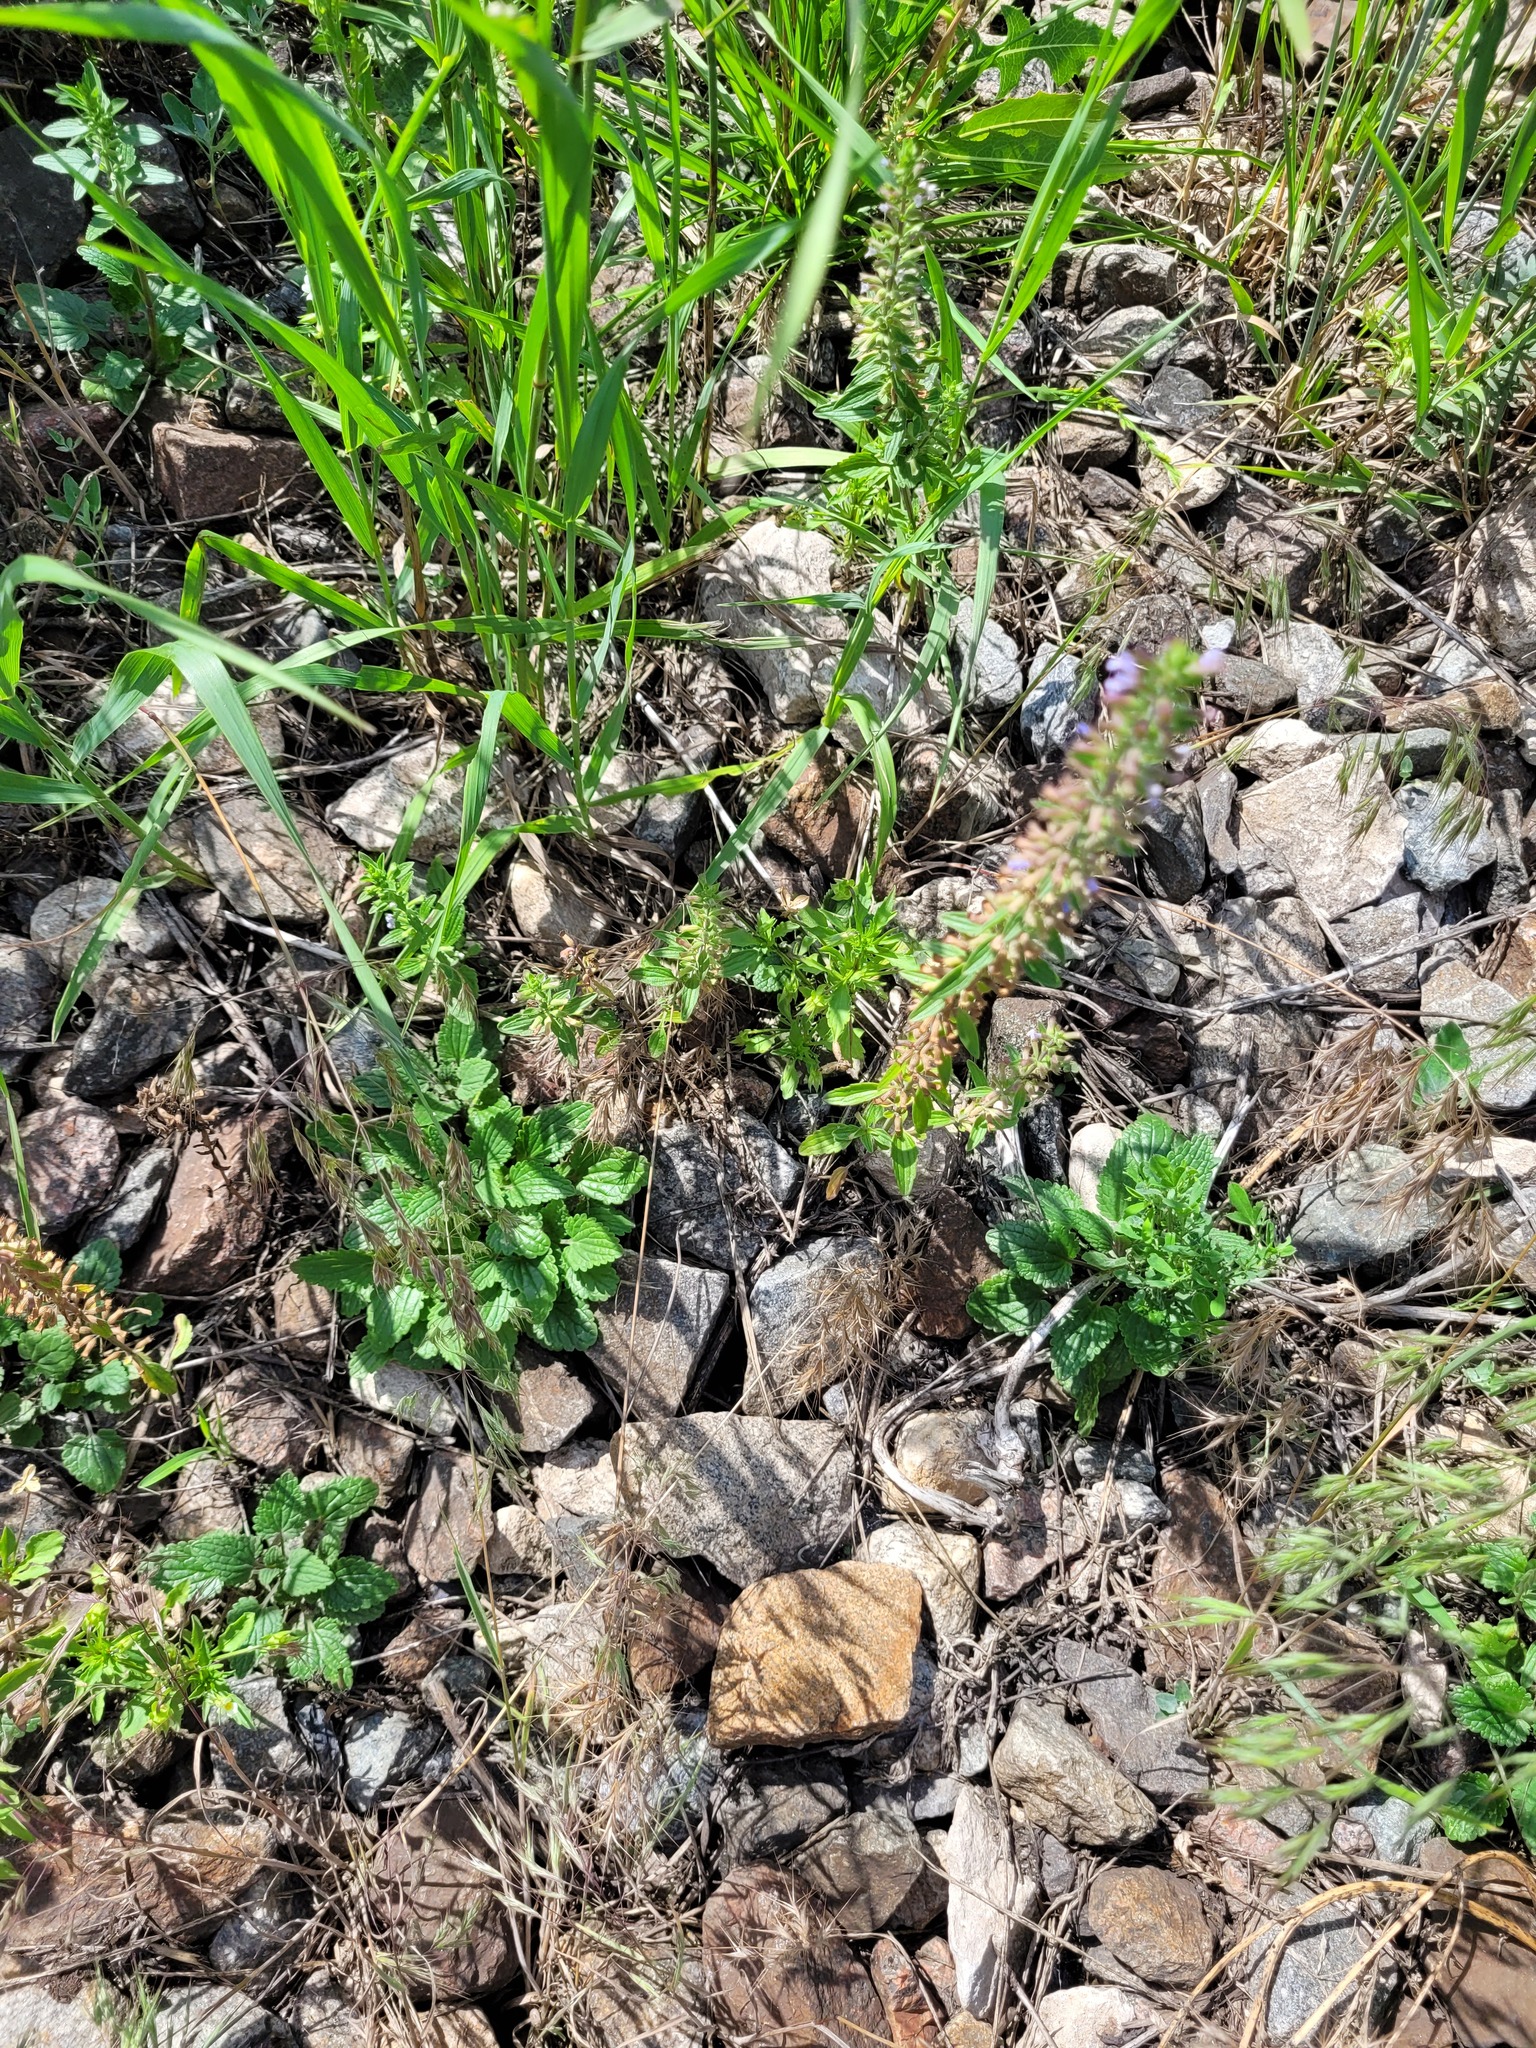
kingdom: Plantae
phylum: Tracheophyta
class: Magnoliopsida
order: Lamiales
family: Lamiaceae
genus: Dracocephalum
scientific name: Dracocephalum thymiflorum
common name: Thymeleaf dragonhead
